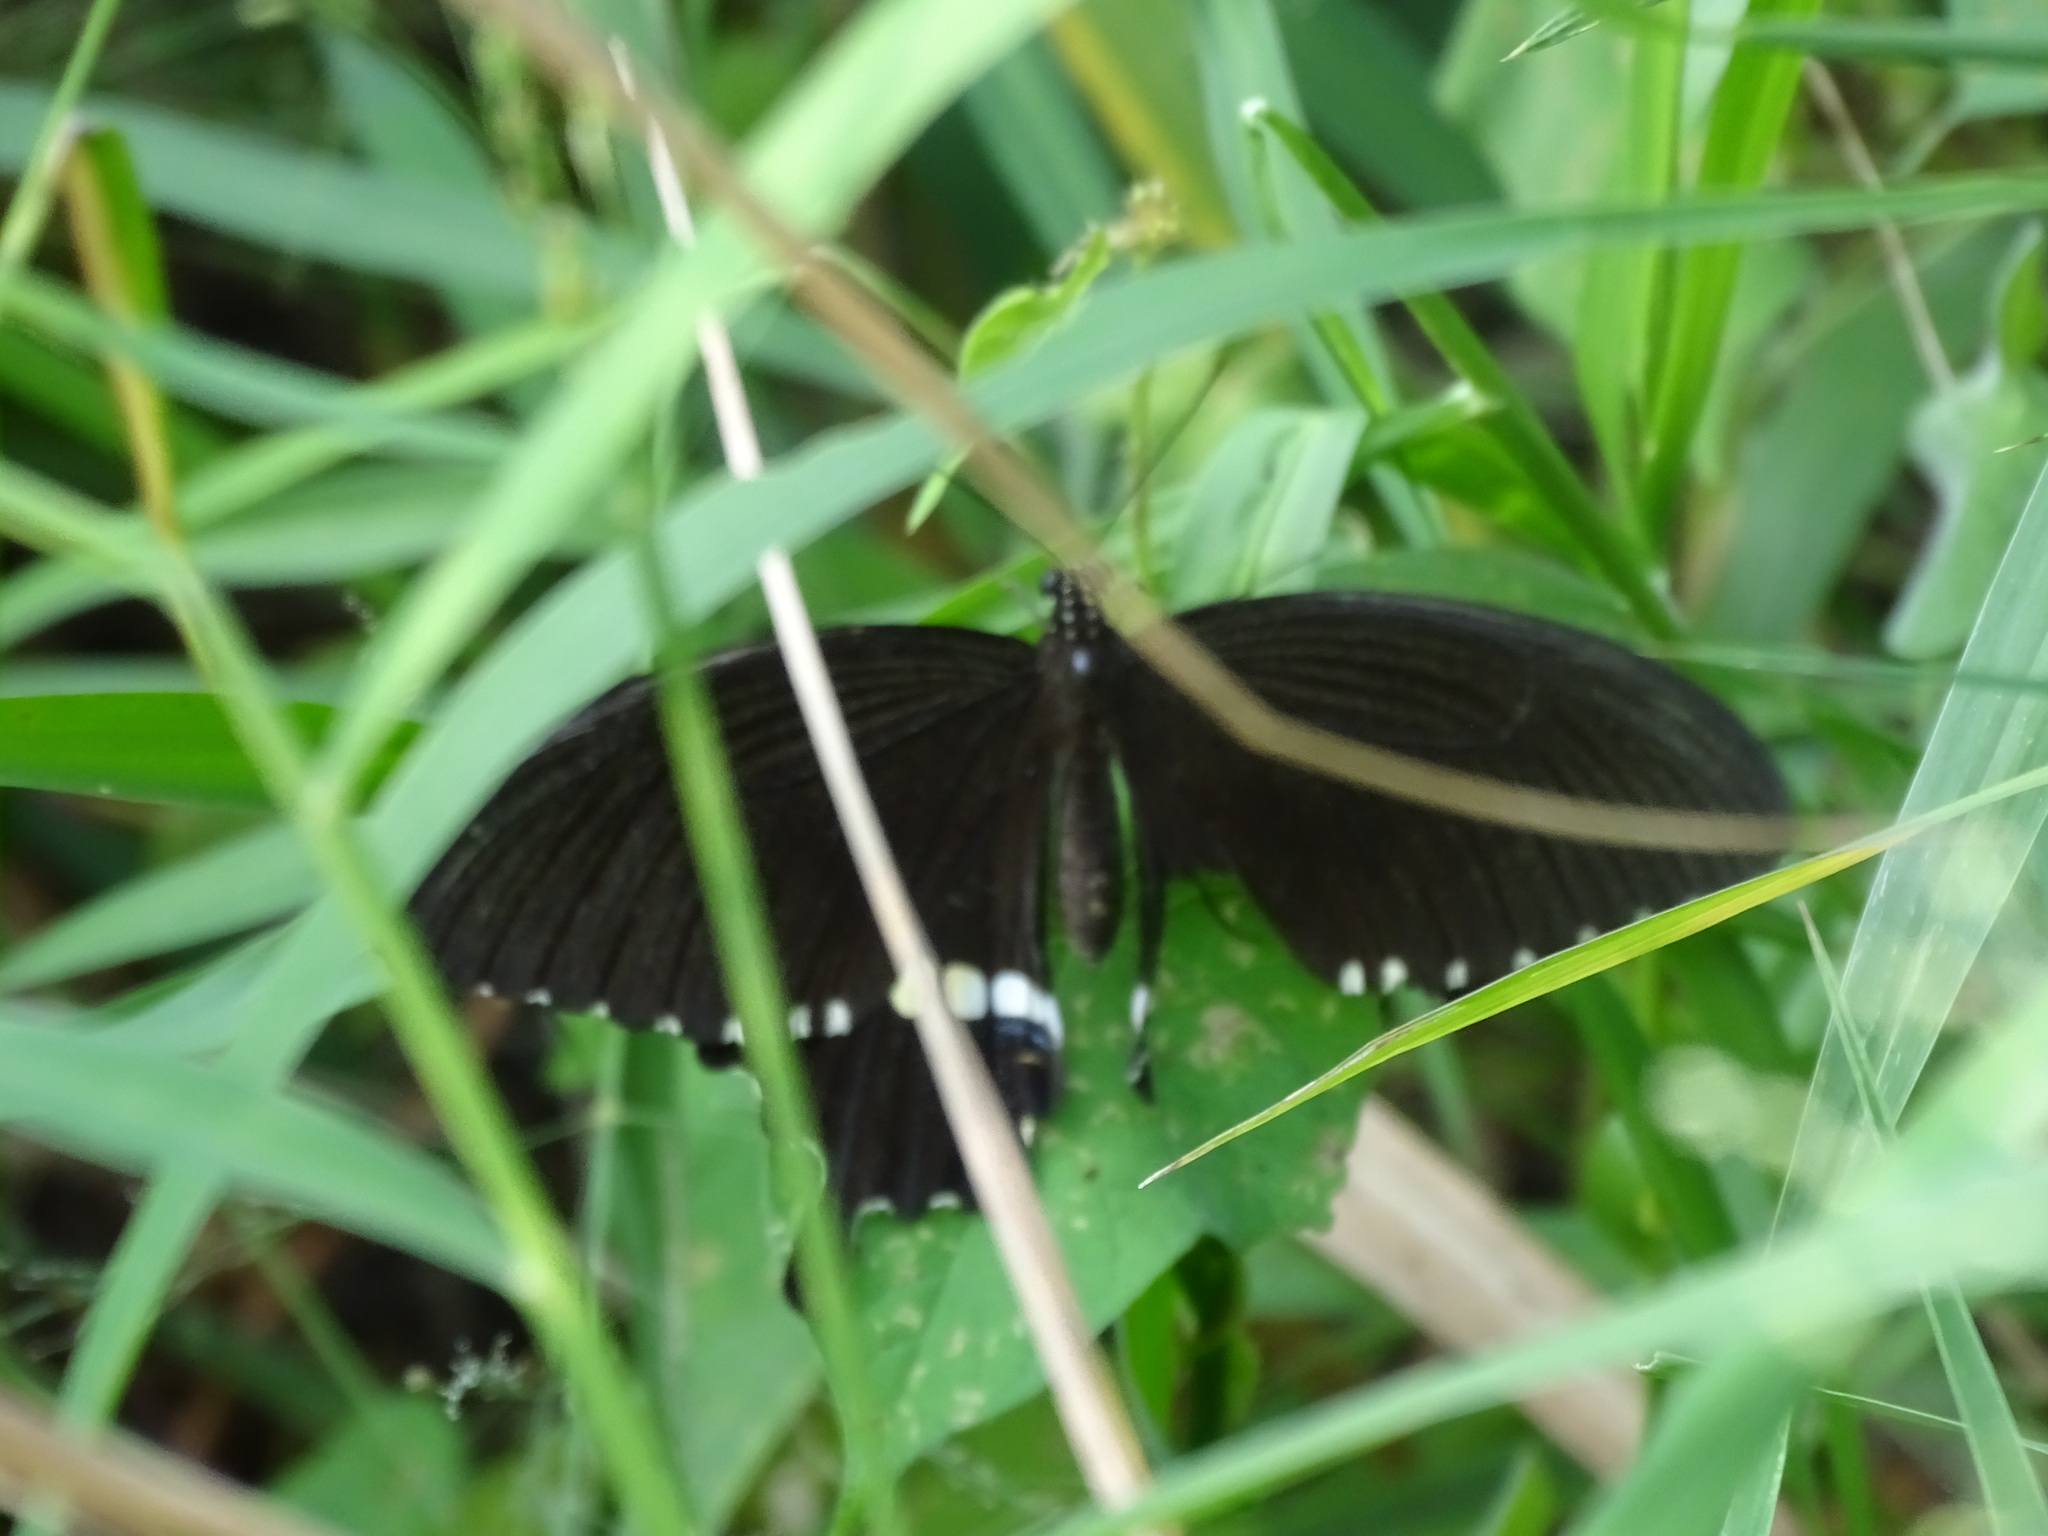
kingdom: Animalia
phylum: Arthropoda
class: Insecta
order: Lepidoptera
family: Papilionidae
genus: Papilio
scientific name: Papilio polytes
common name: Common mormon
